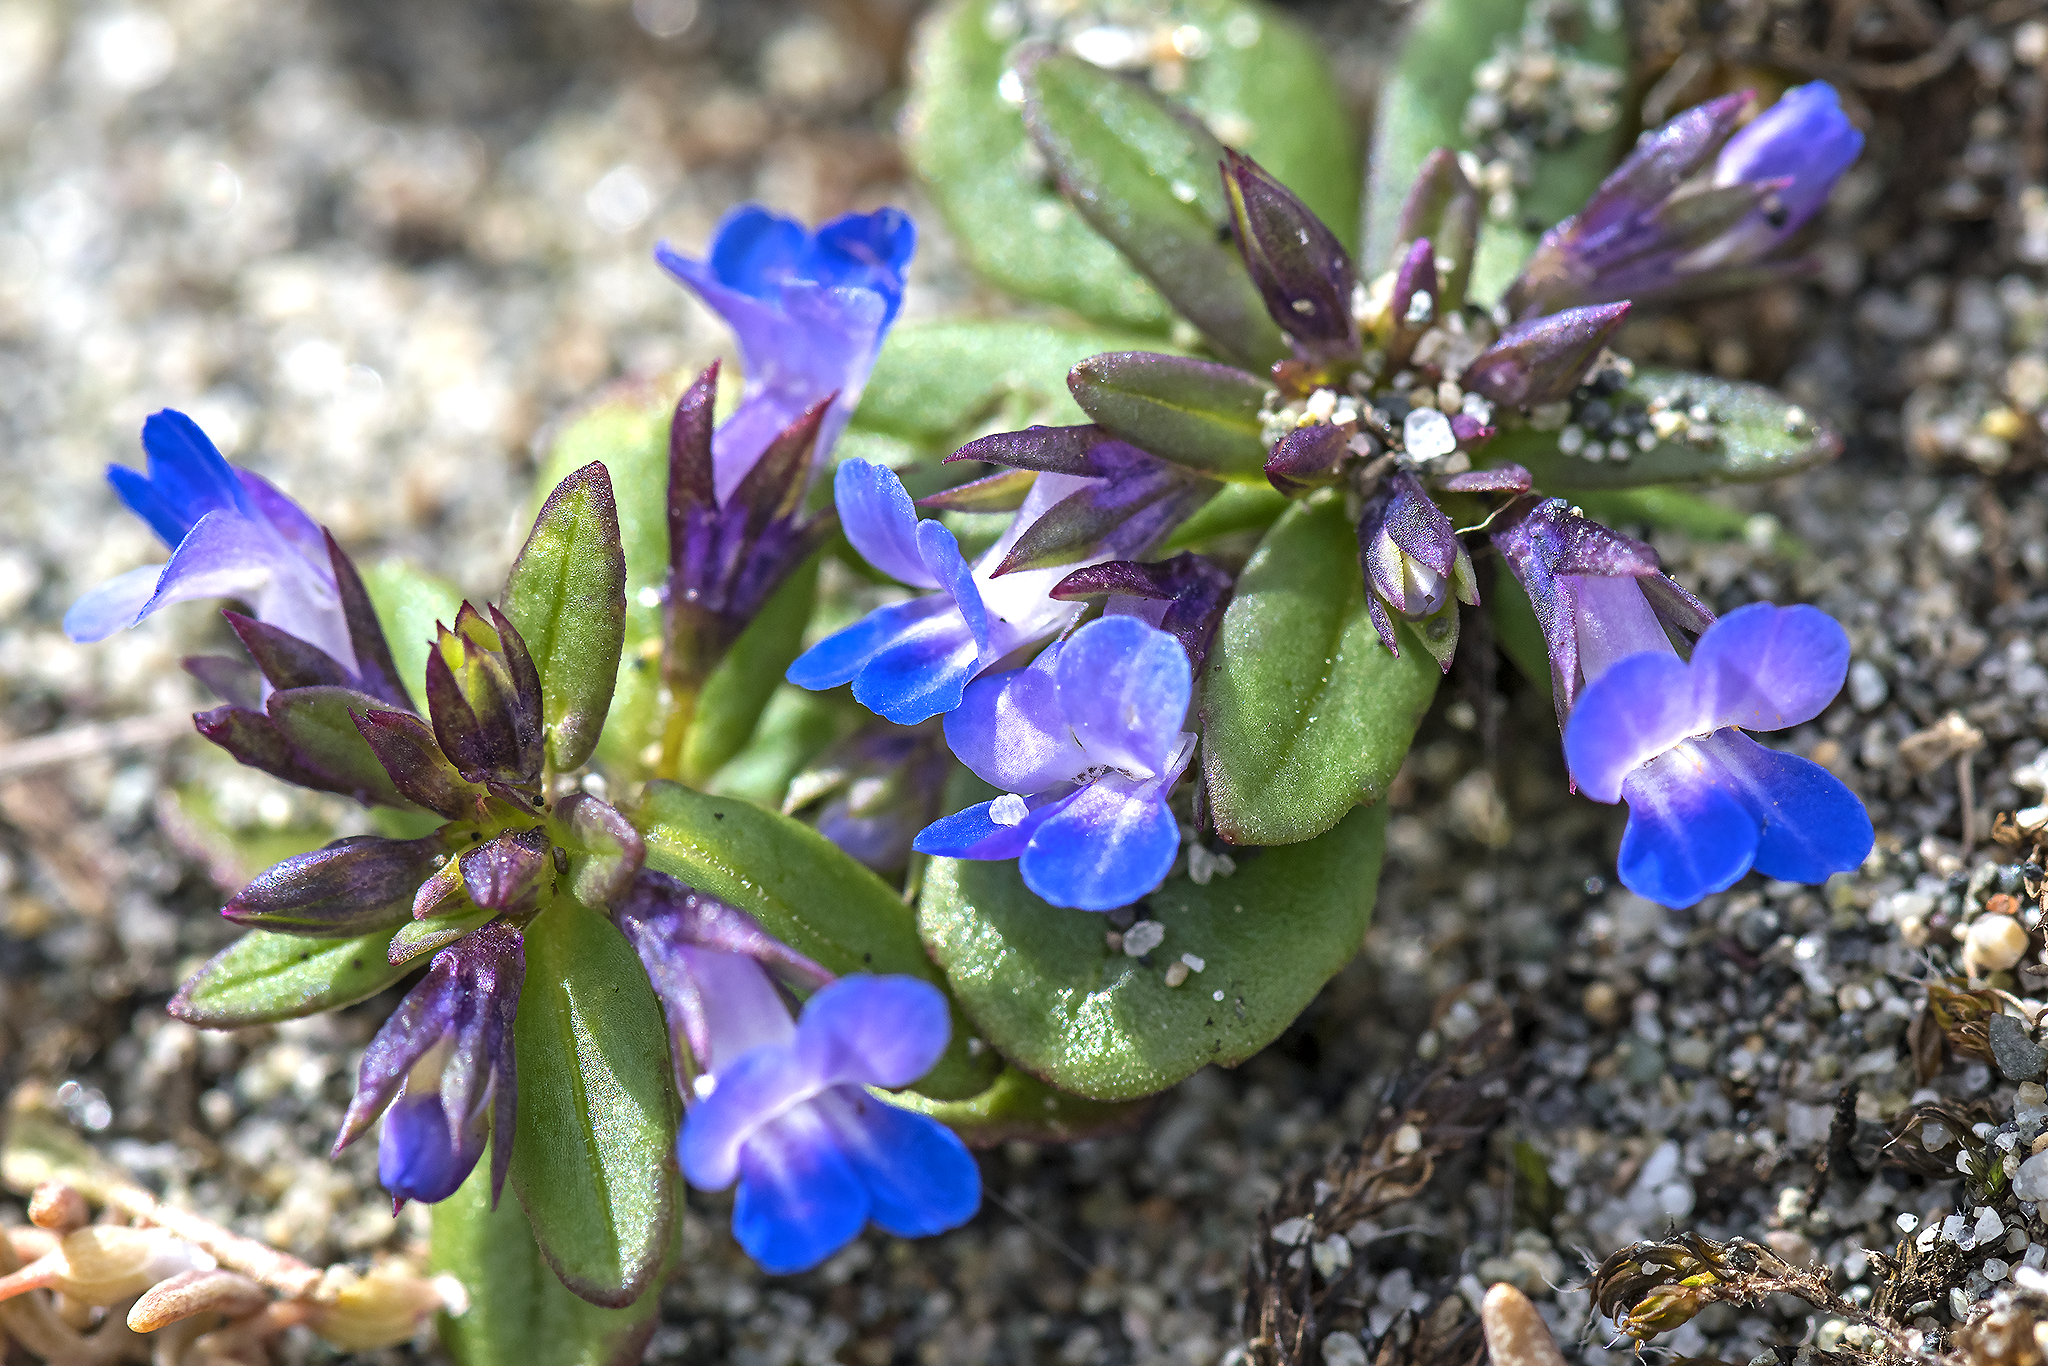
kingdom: Plantae
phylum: Tracheophyta
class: Magnoliopsida
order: Lamiales
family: Plantaginaceae
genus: Collinsia
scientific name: Collinsia parviflora
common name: Blue-lips
